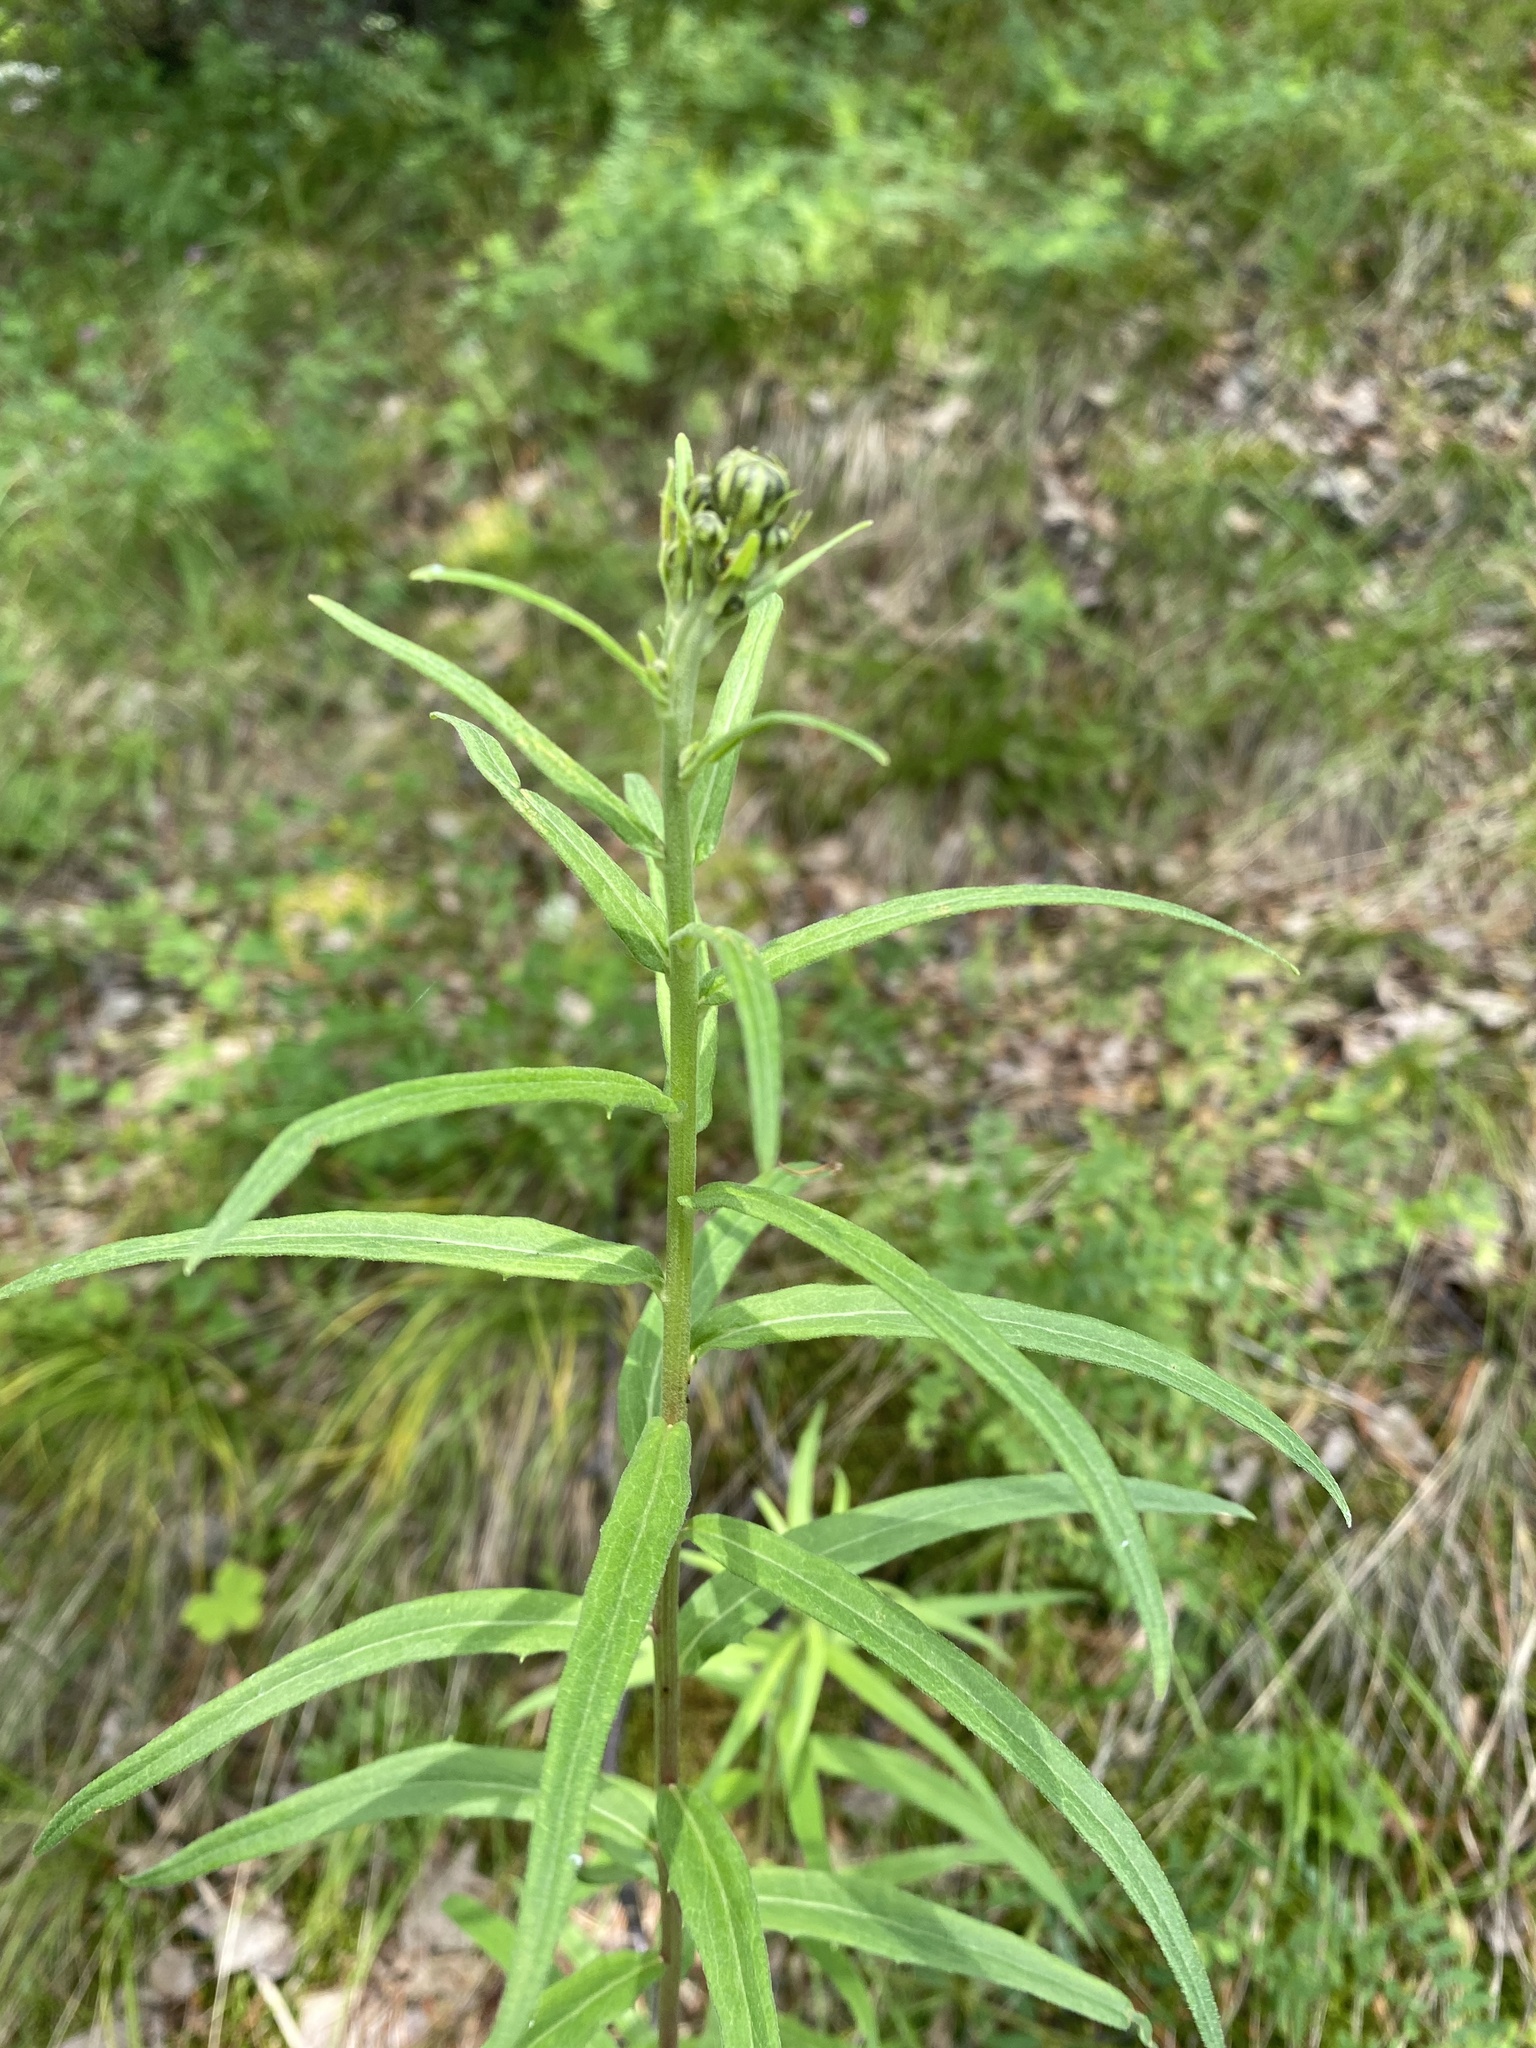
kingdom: Plantae
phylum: Tracheophyta
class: Magnoliopsida
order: Asterales
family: Asteraceae
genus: Hieracium
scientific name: Hieracium umbellatum
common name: Northern hawkweed
